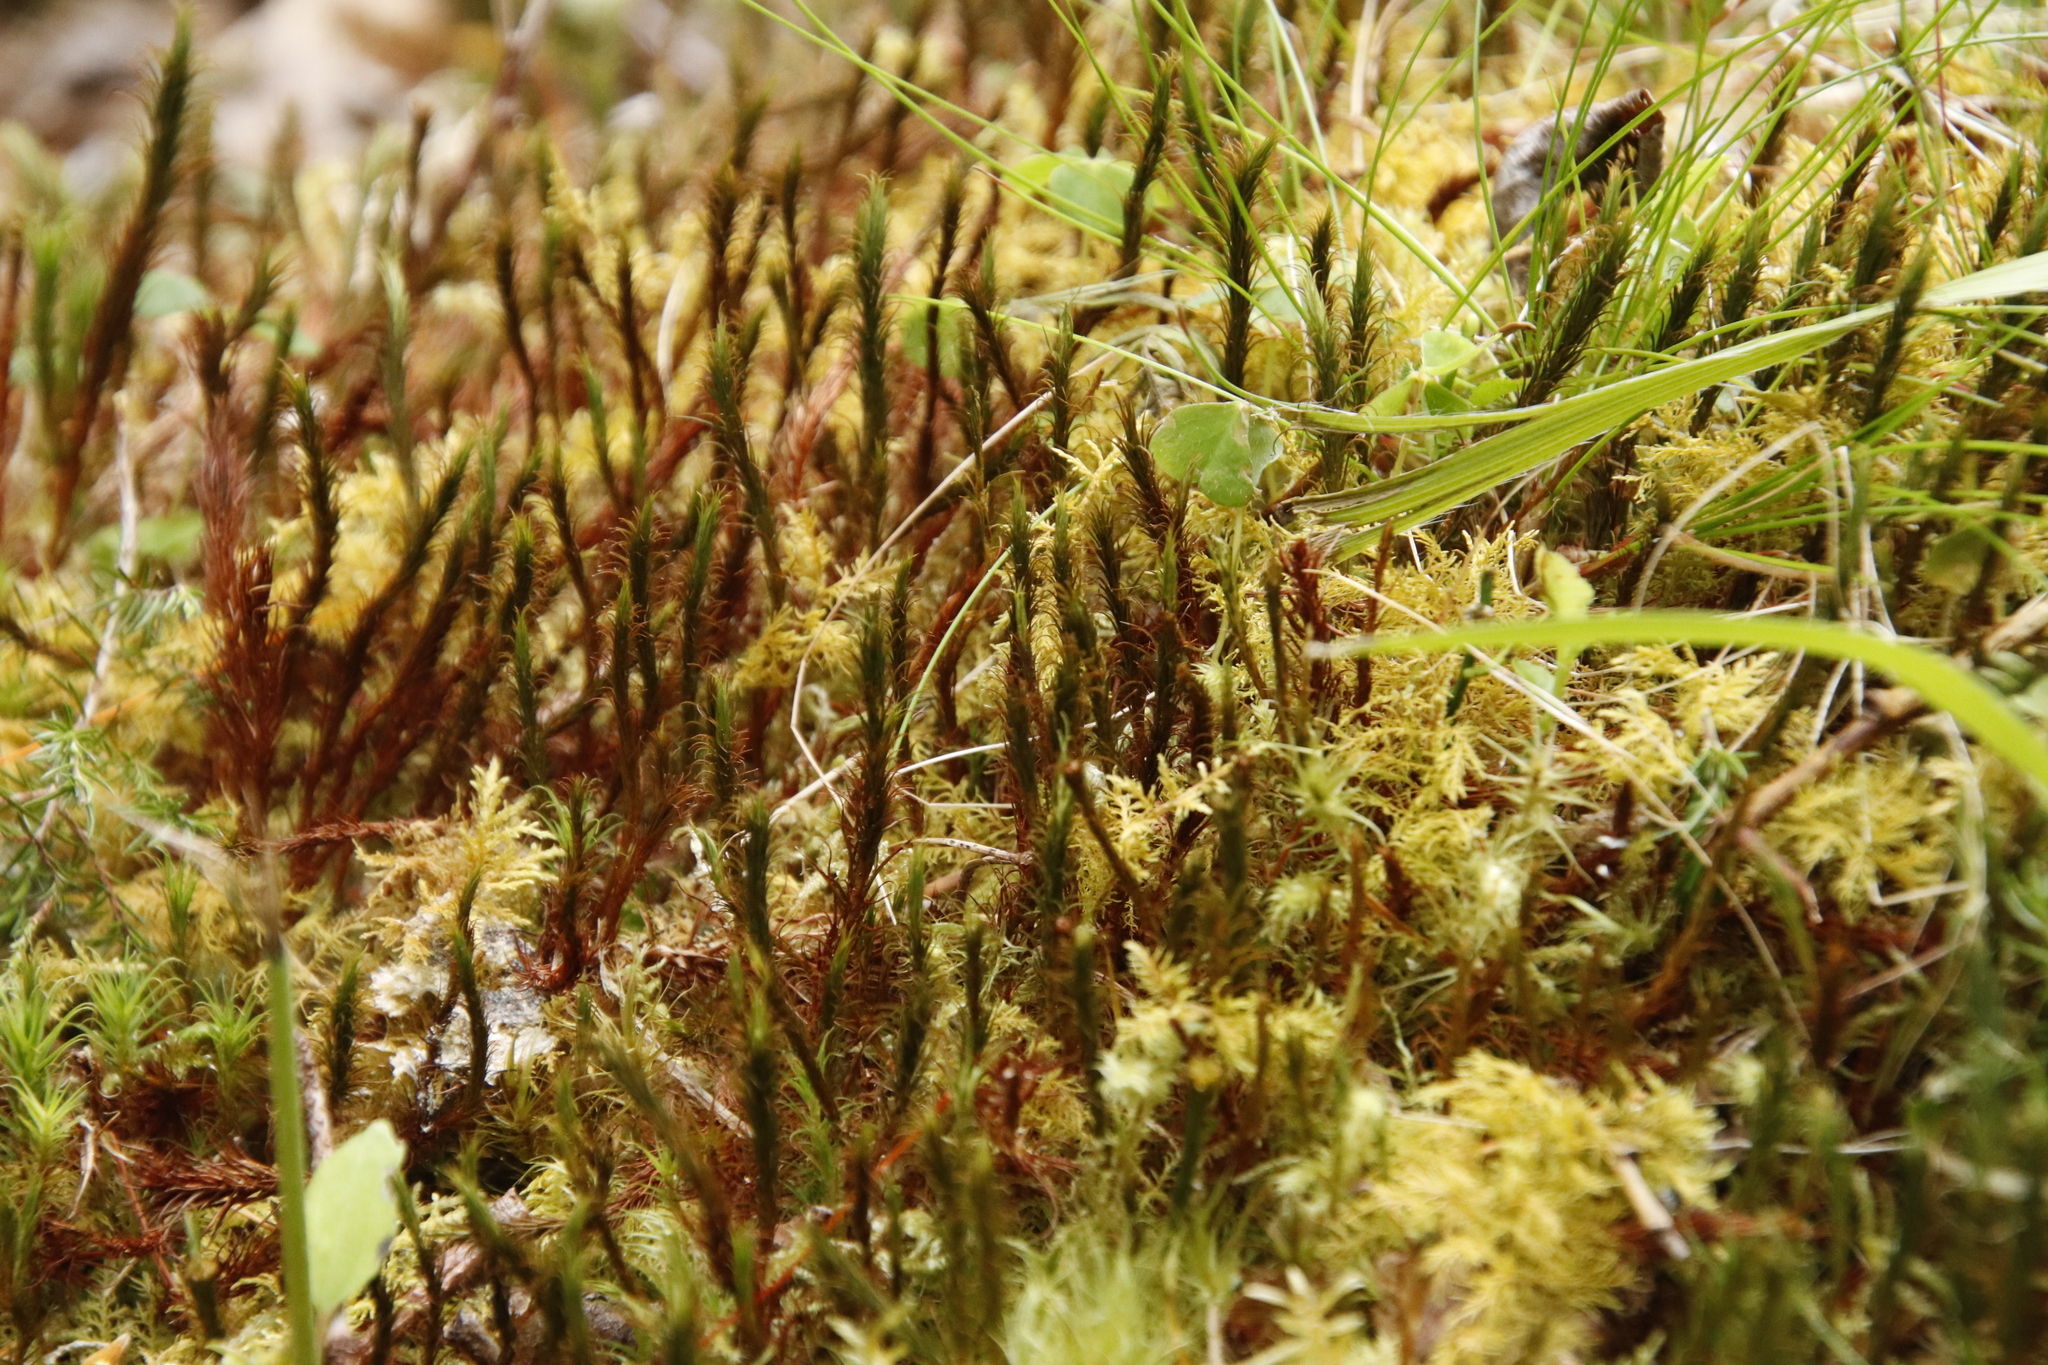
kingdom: Plantae
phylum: Bryophyta
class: Polytrichopsida
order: Polytrichales
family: Polytrichaceae
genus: Polytrichum
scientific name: Polytrichum formosum
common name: Bank haircap moss
